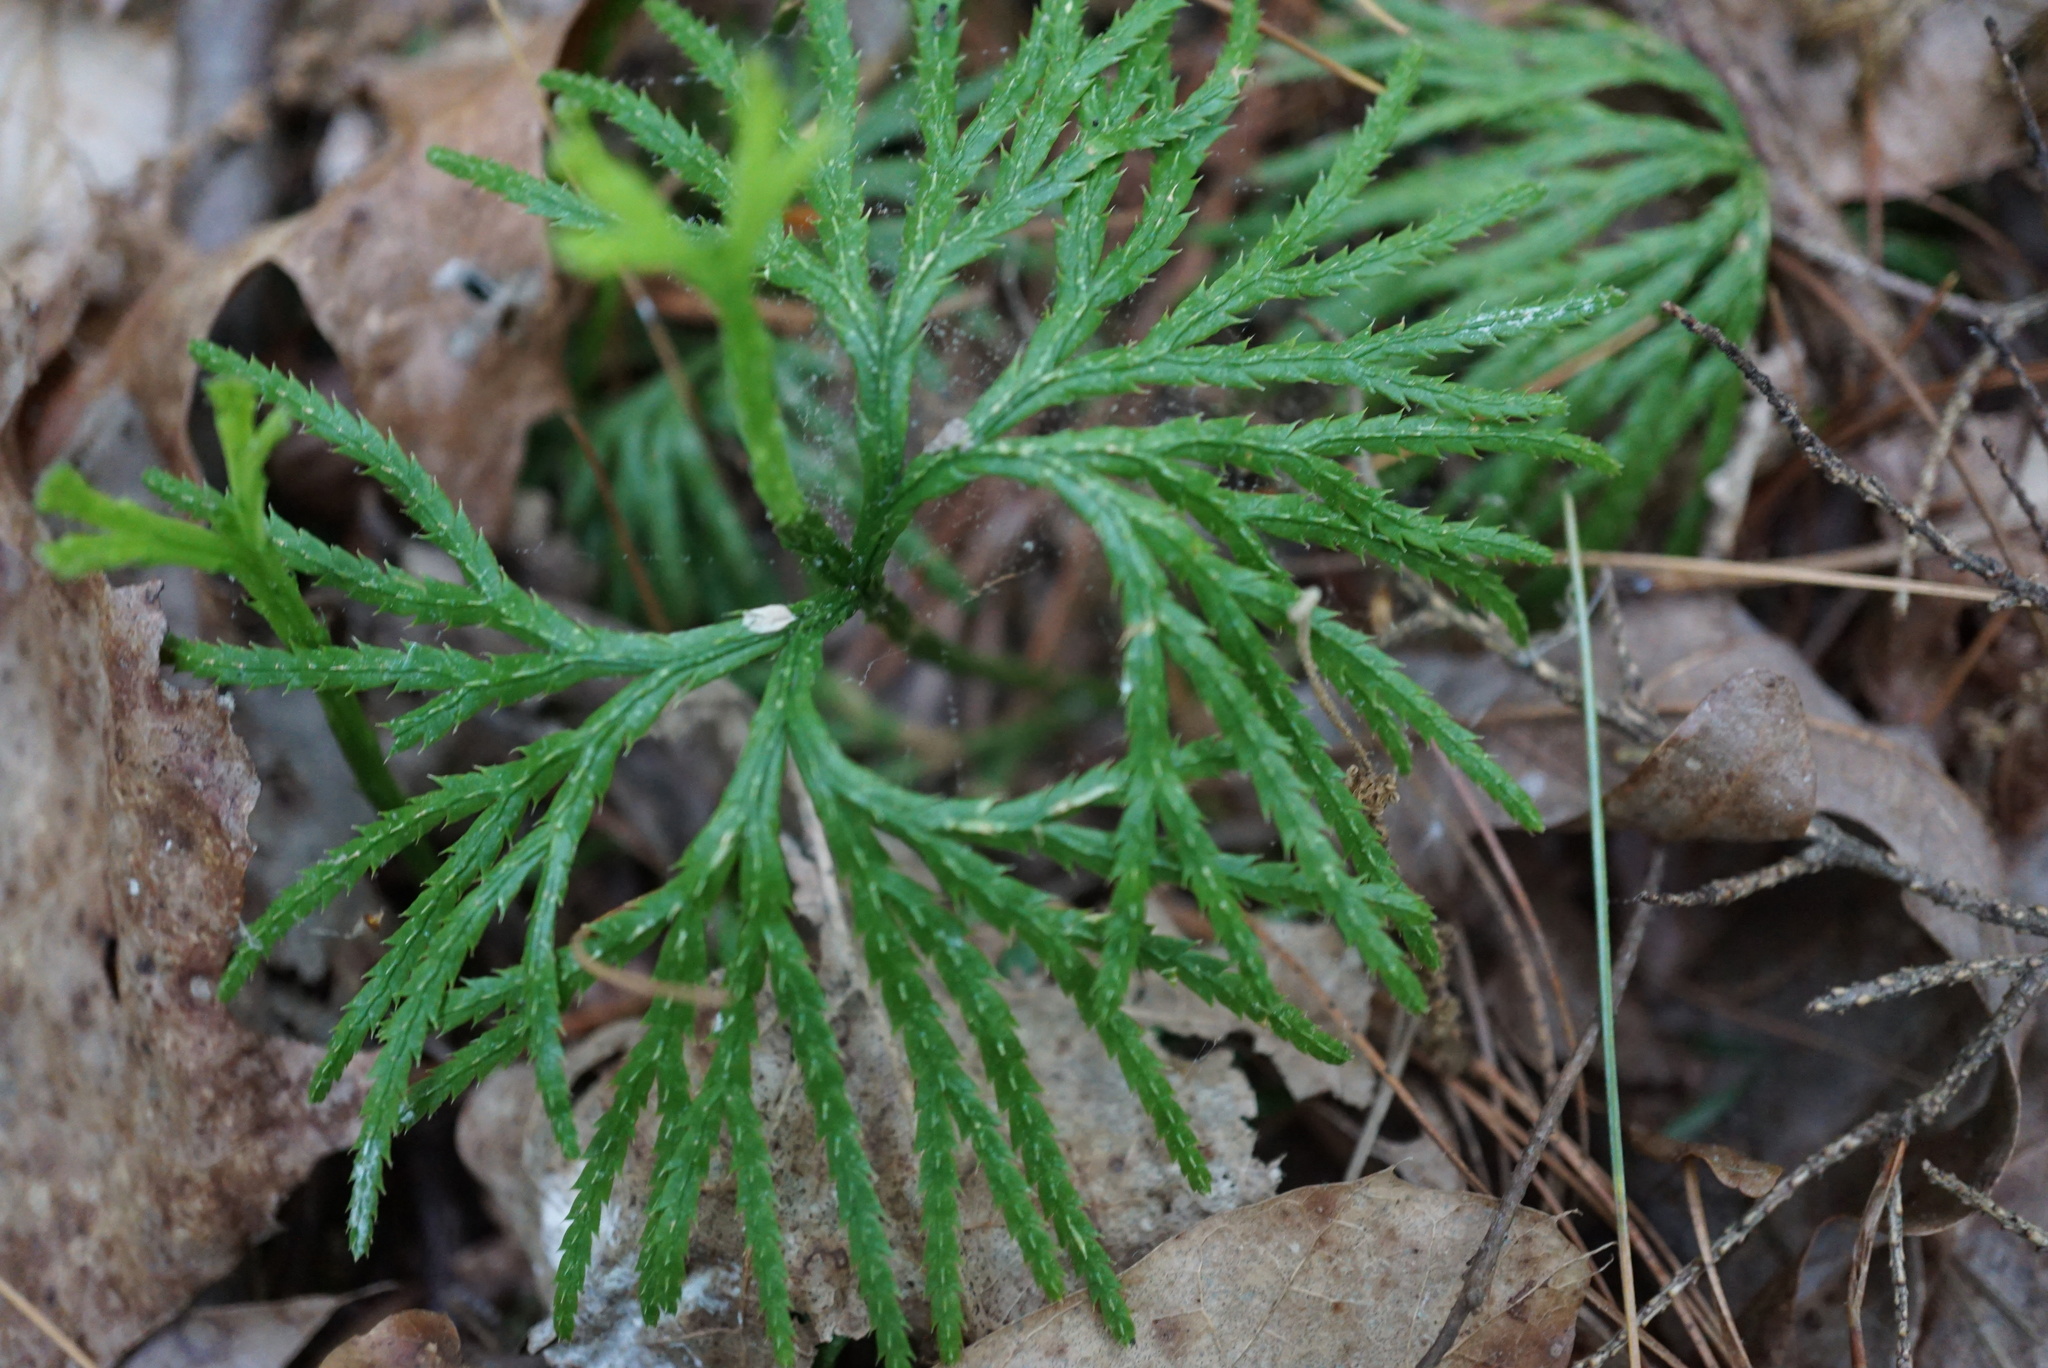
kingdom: Plantae
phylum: Tracheophyta
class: Lycopodiopsida
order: Lycopodiales
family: Lycopodiaceae
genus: Diphasiastrum
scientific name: Diphasiastrum digitatum
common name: Southern running-pine
